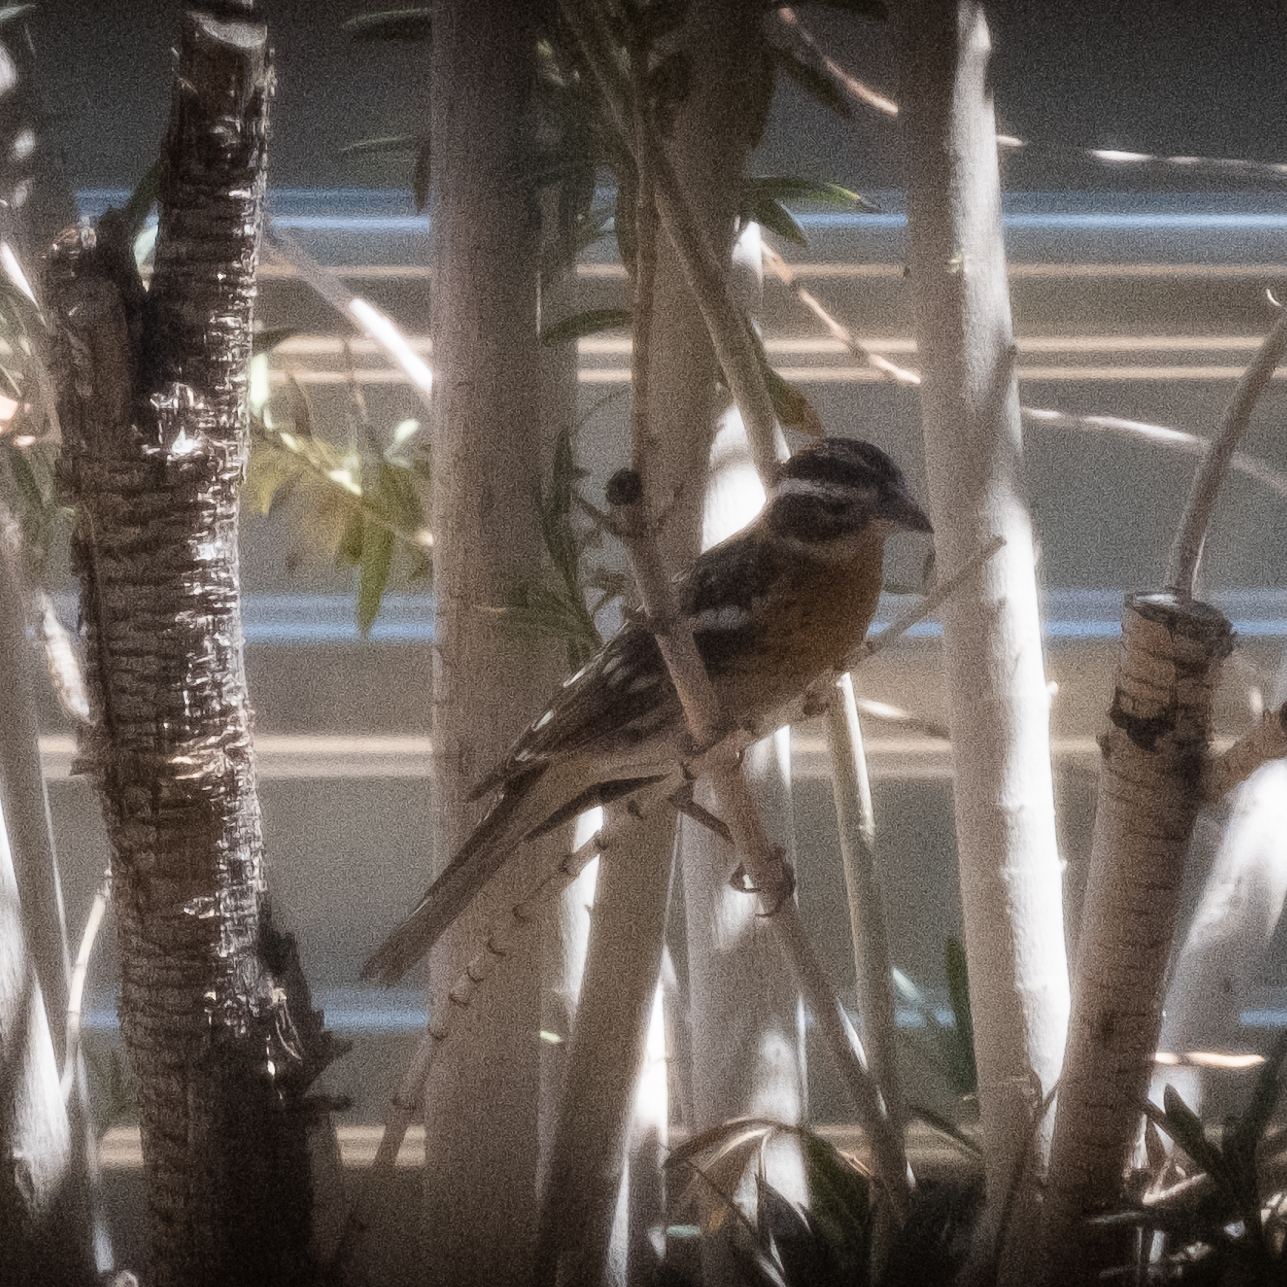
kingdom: Animalia
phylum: Chordata
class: Aves
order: Passeriformes
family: Cardinalidae
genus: Pheucticus
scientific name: Pheucticus melanocephalus
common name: Black-headed grosbeak
